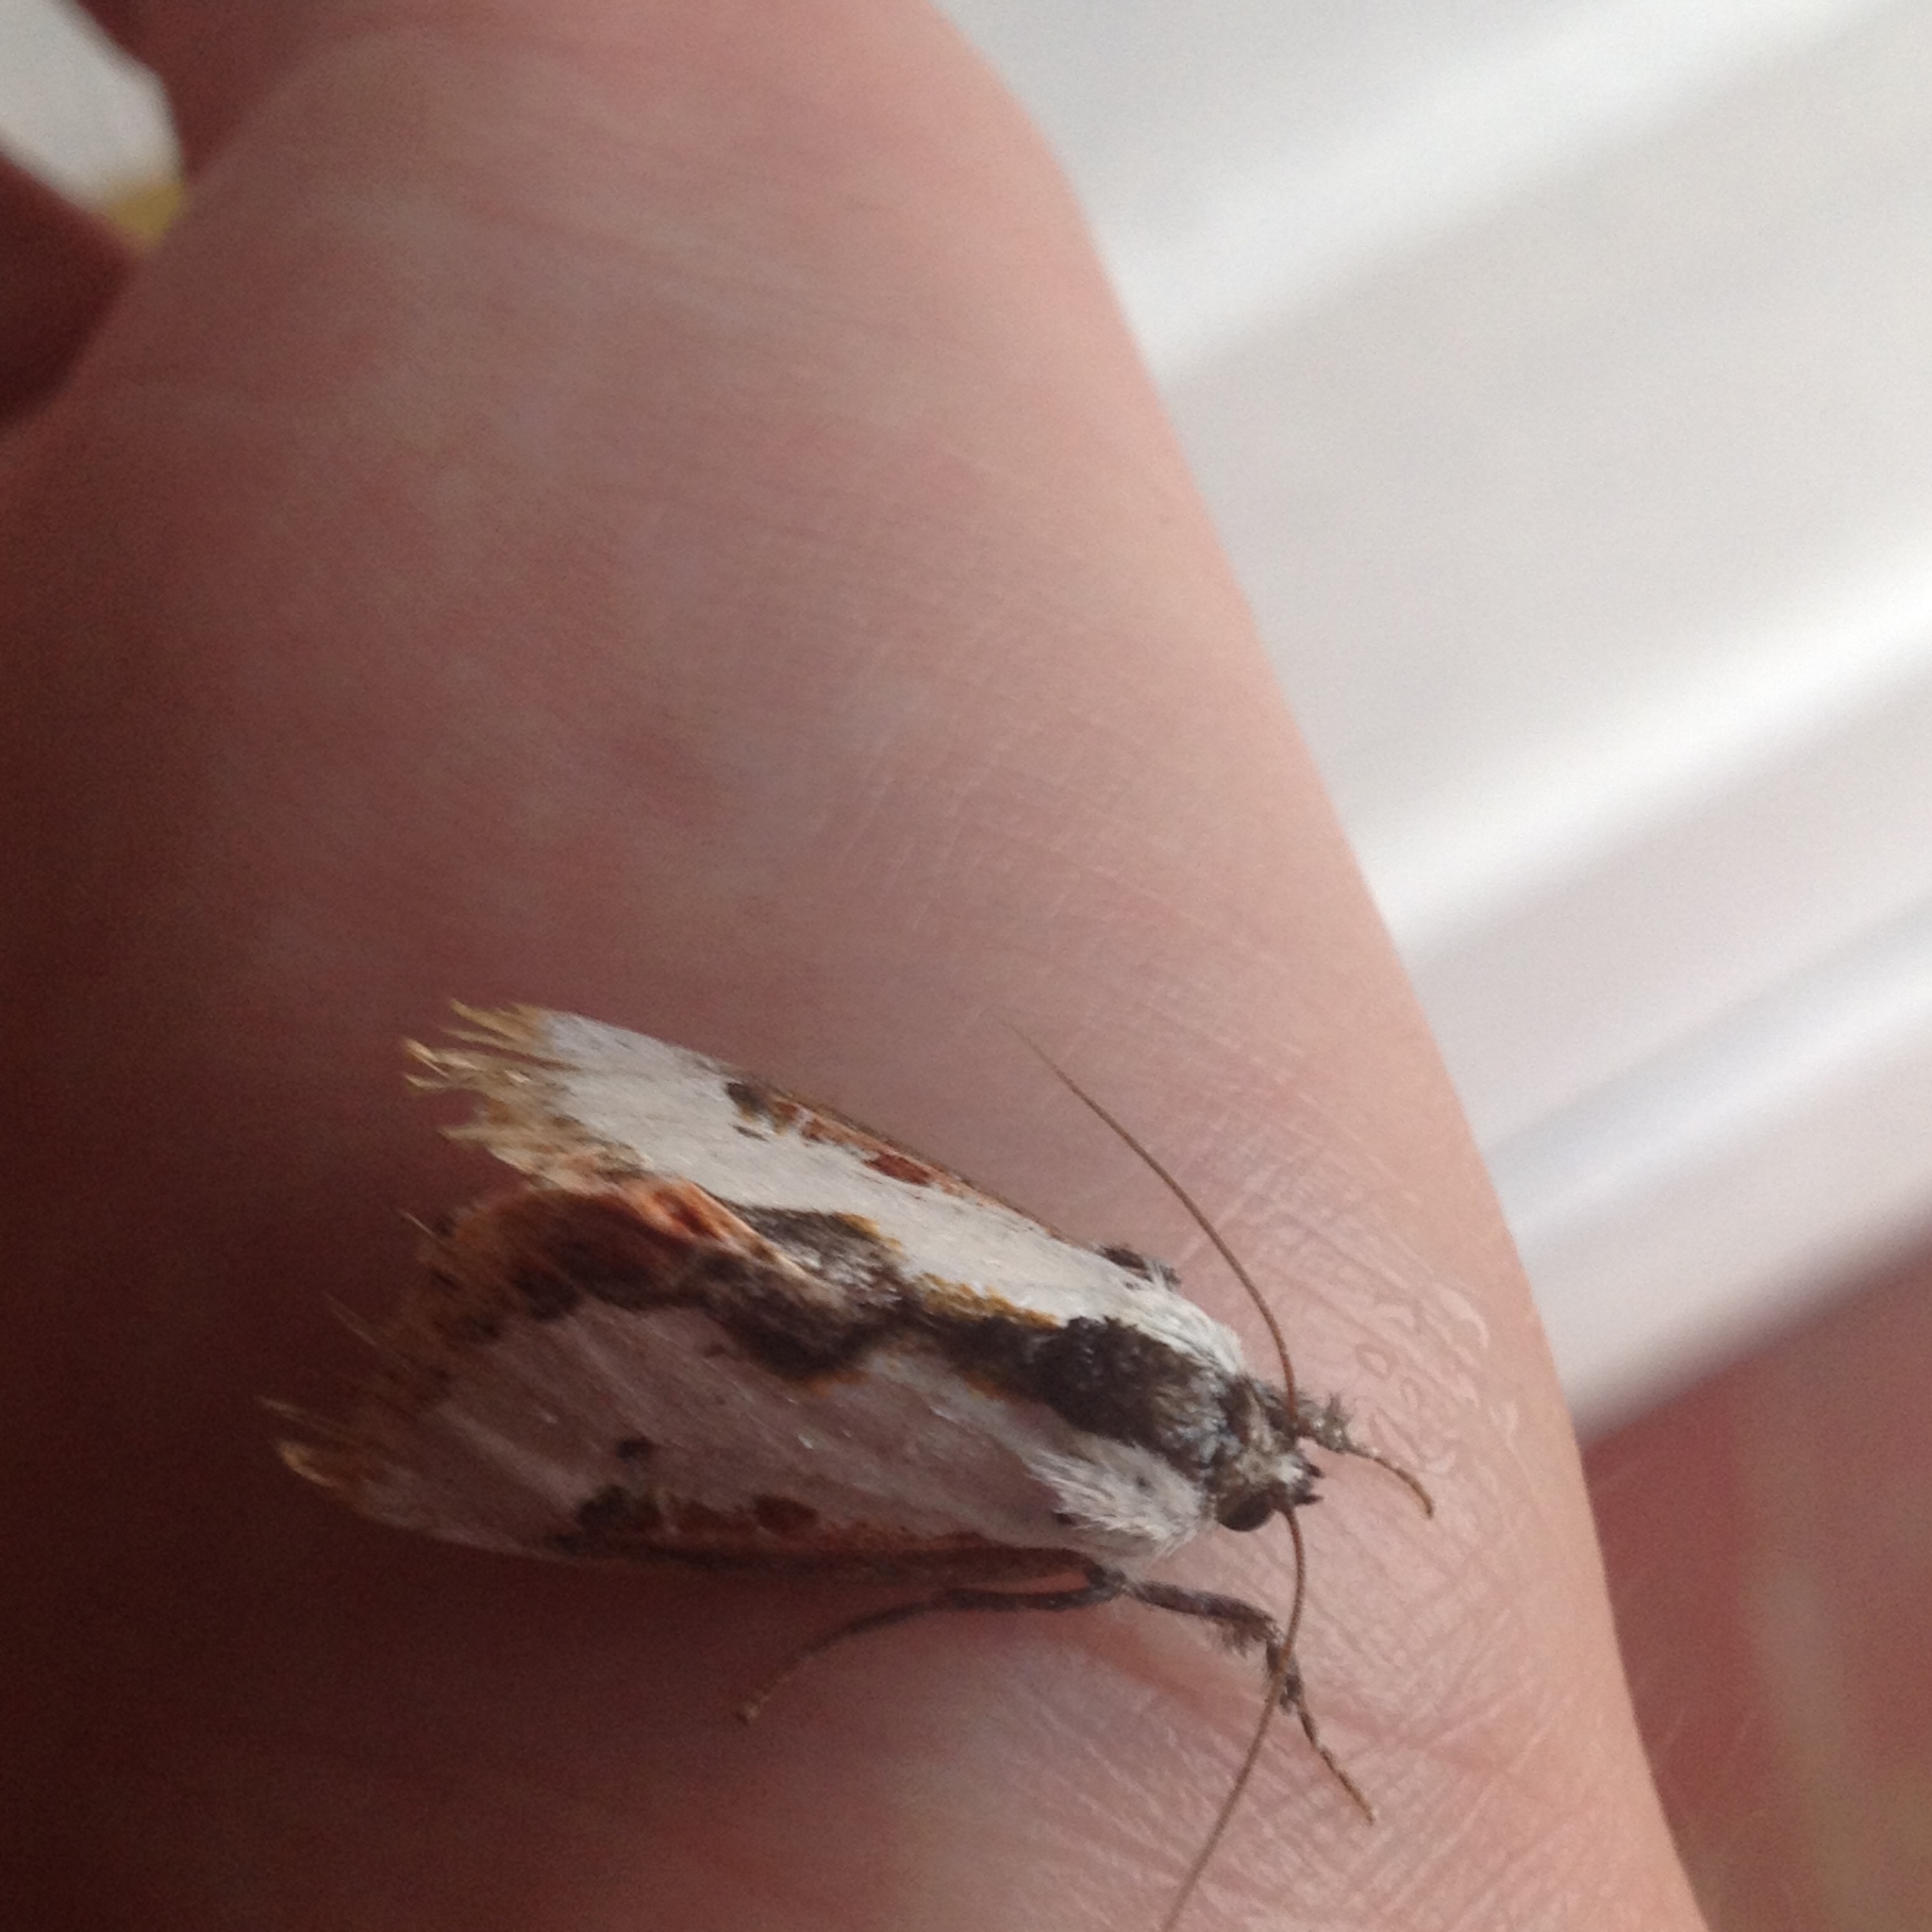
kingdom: Animalia
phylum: Arthropoda
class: Insecta
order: Lepidoptera
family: Noctuidae
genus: Eudryas
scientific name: Eudryas unio
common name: Pearly wood-nymph
